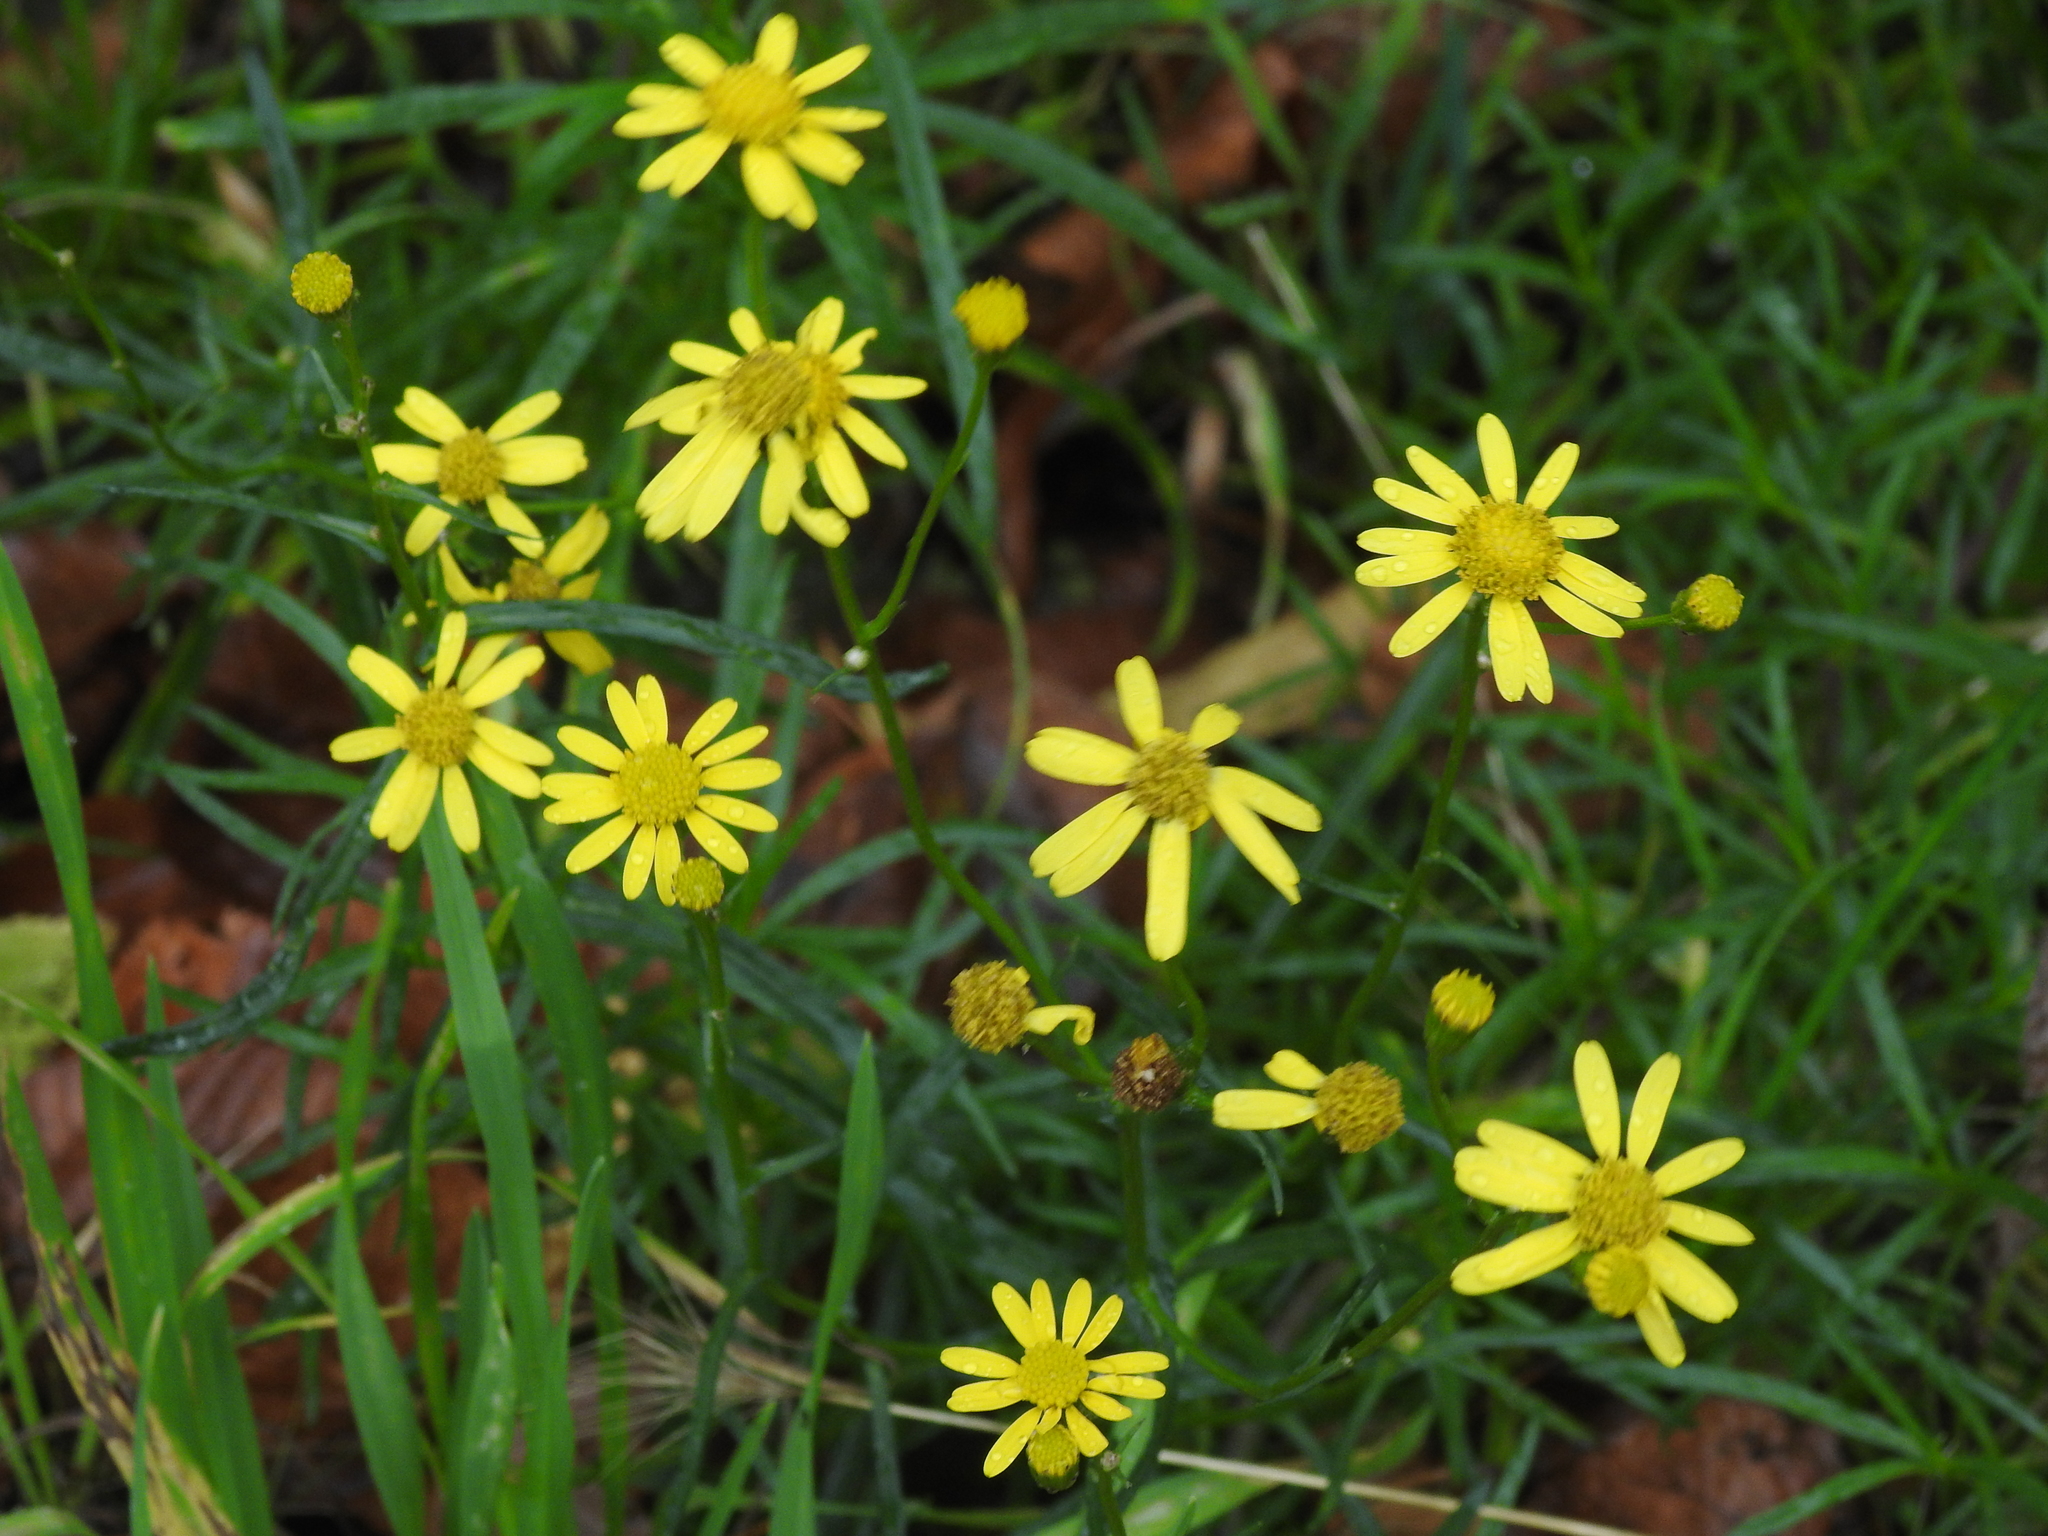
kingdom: Plantae
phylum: Tracheophyta
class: Magnoliopsida
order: Asterales
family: Asteraceae
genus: Senecio
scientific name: Senecio inaequidens
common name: Narrow-leaved ragwort
